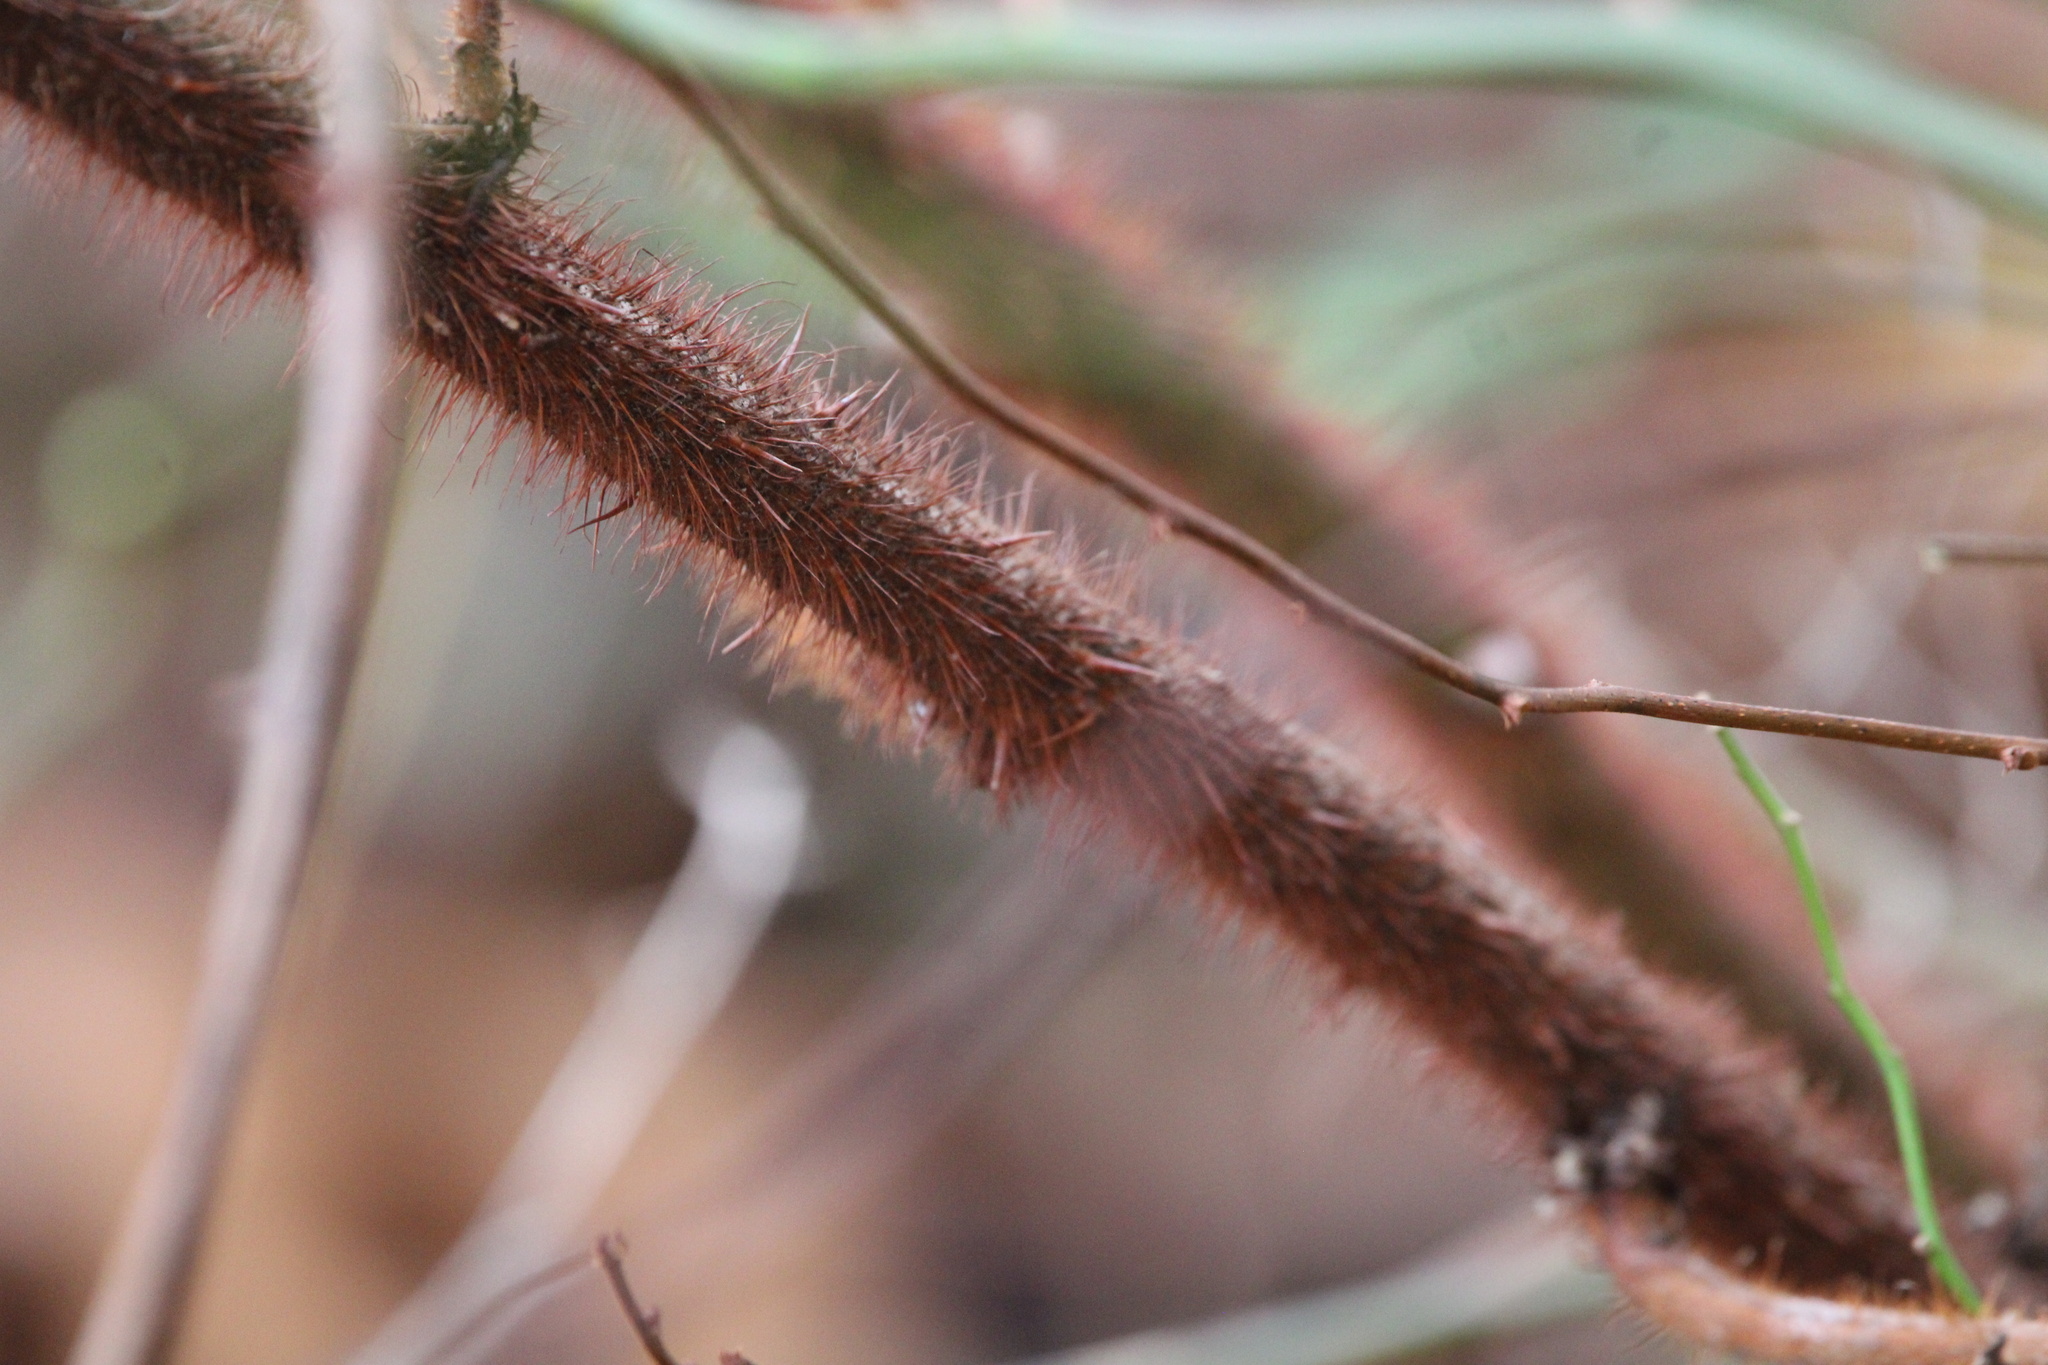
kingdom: Plantae
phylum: Tracheophyta
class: Magnoliopsida
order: Rosales
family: Rosaceae
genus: Rubus
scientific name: Rubus phoenicolasius
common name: Japanese wineberry
